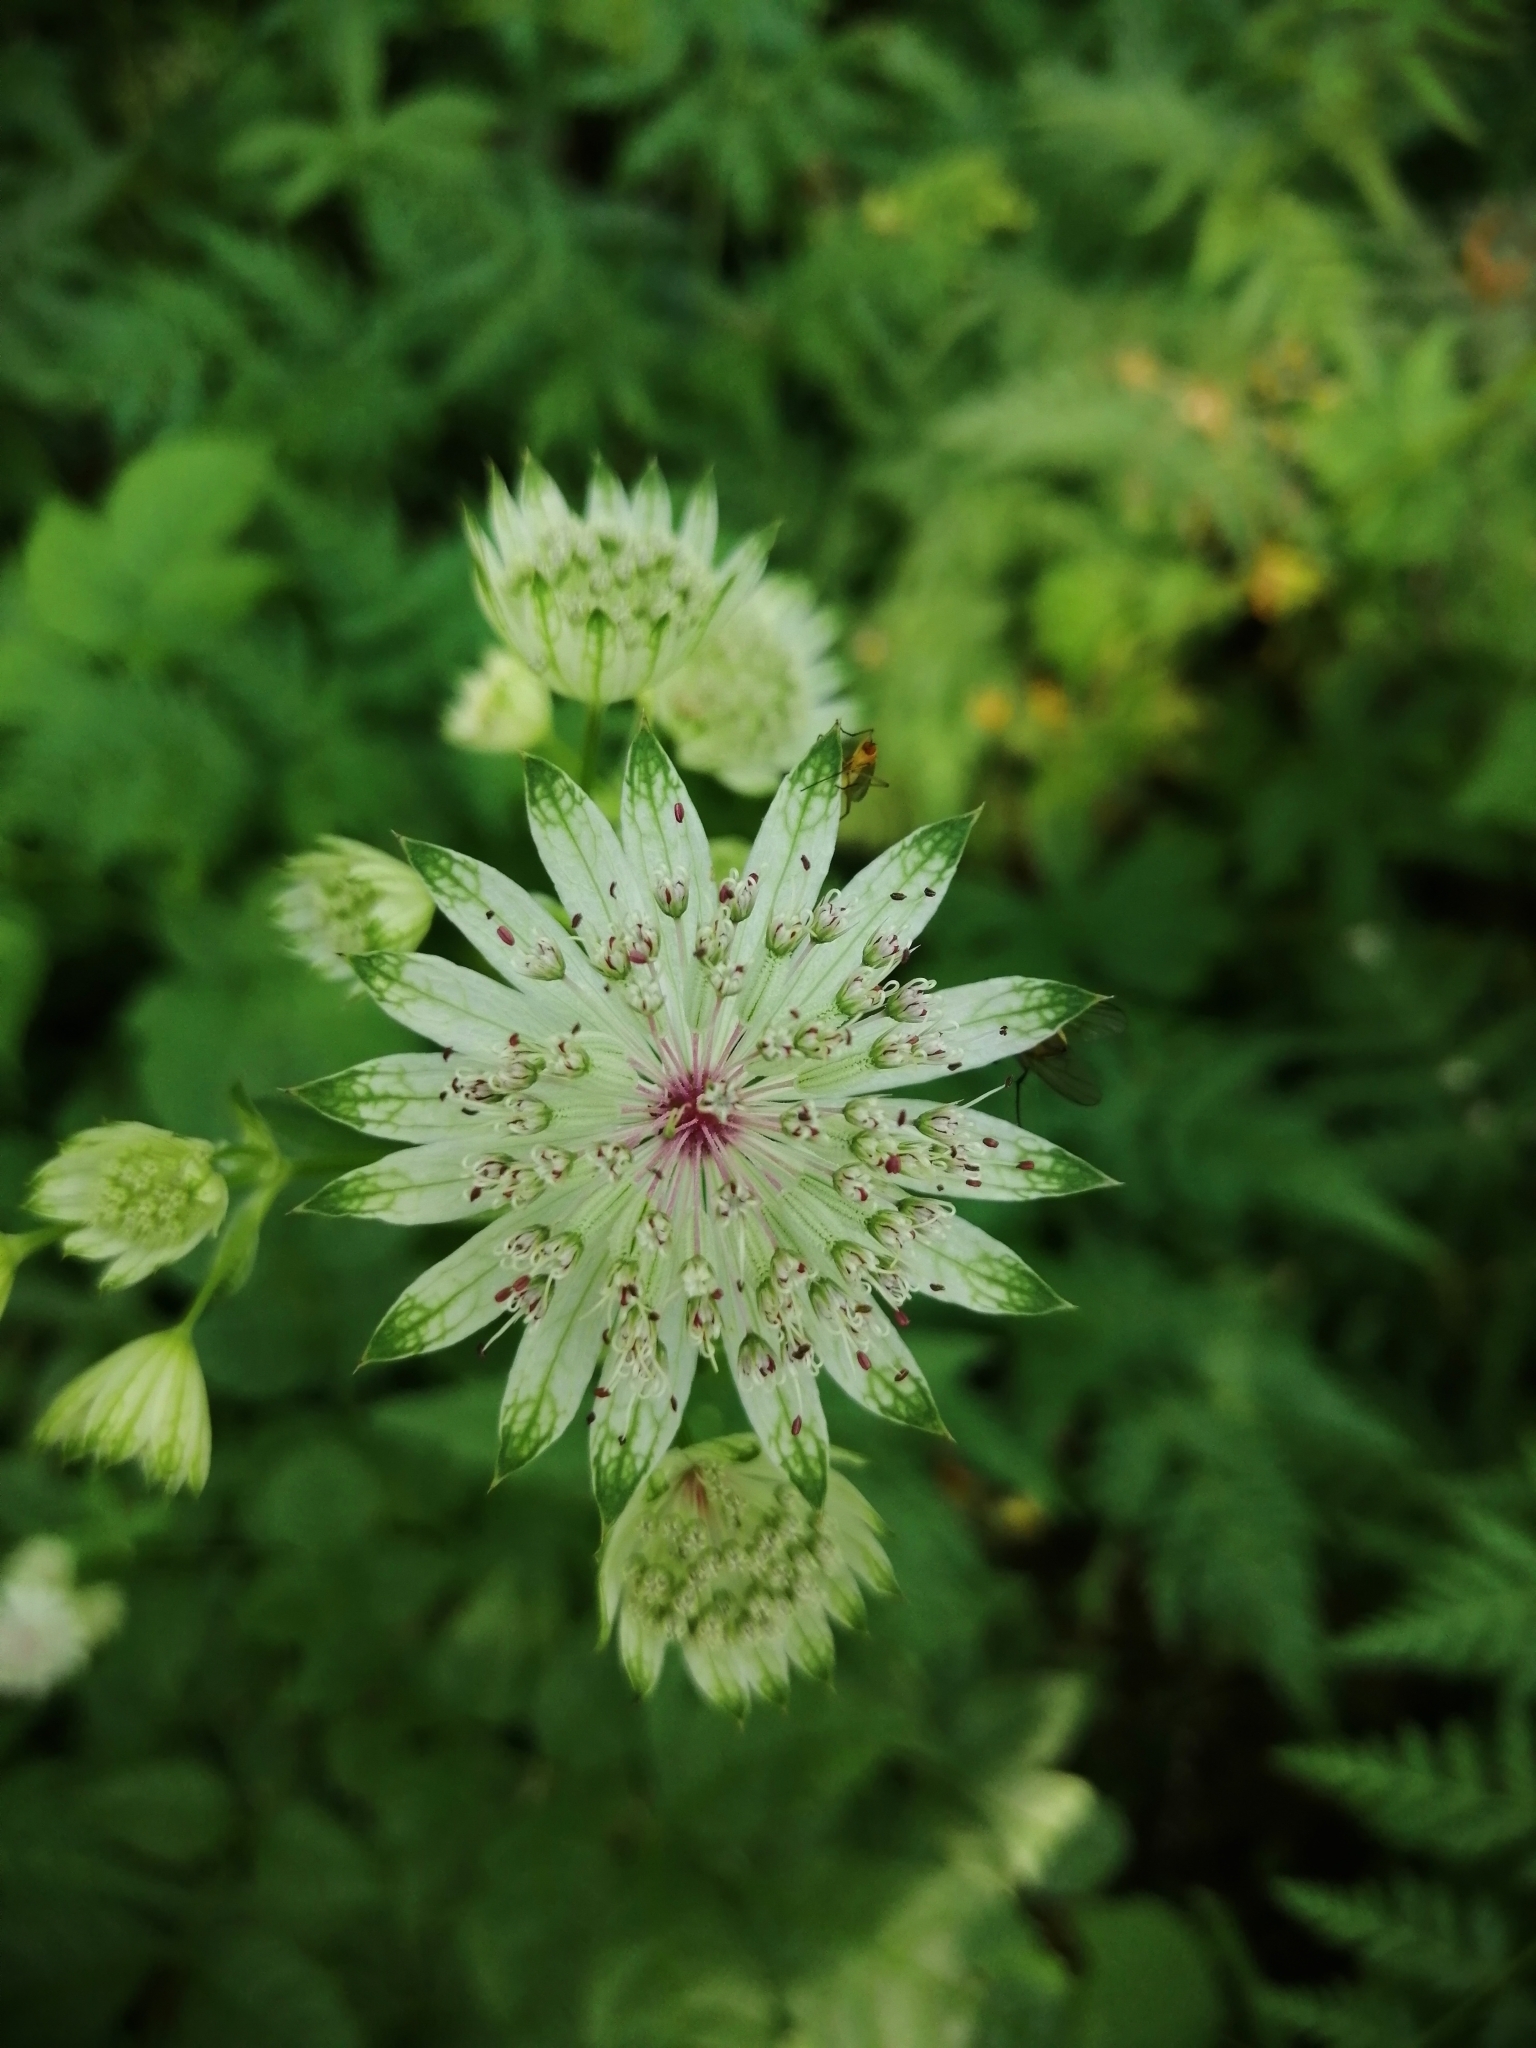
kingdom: Plantae
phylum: Tracheophyta
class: Magnoliopsida
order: Apiales
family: Apiaceae
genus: Astrantia
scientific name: Astrantia major
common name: Greater masterwort
